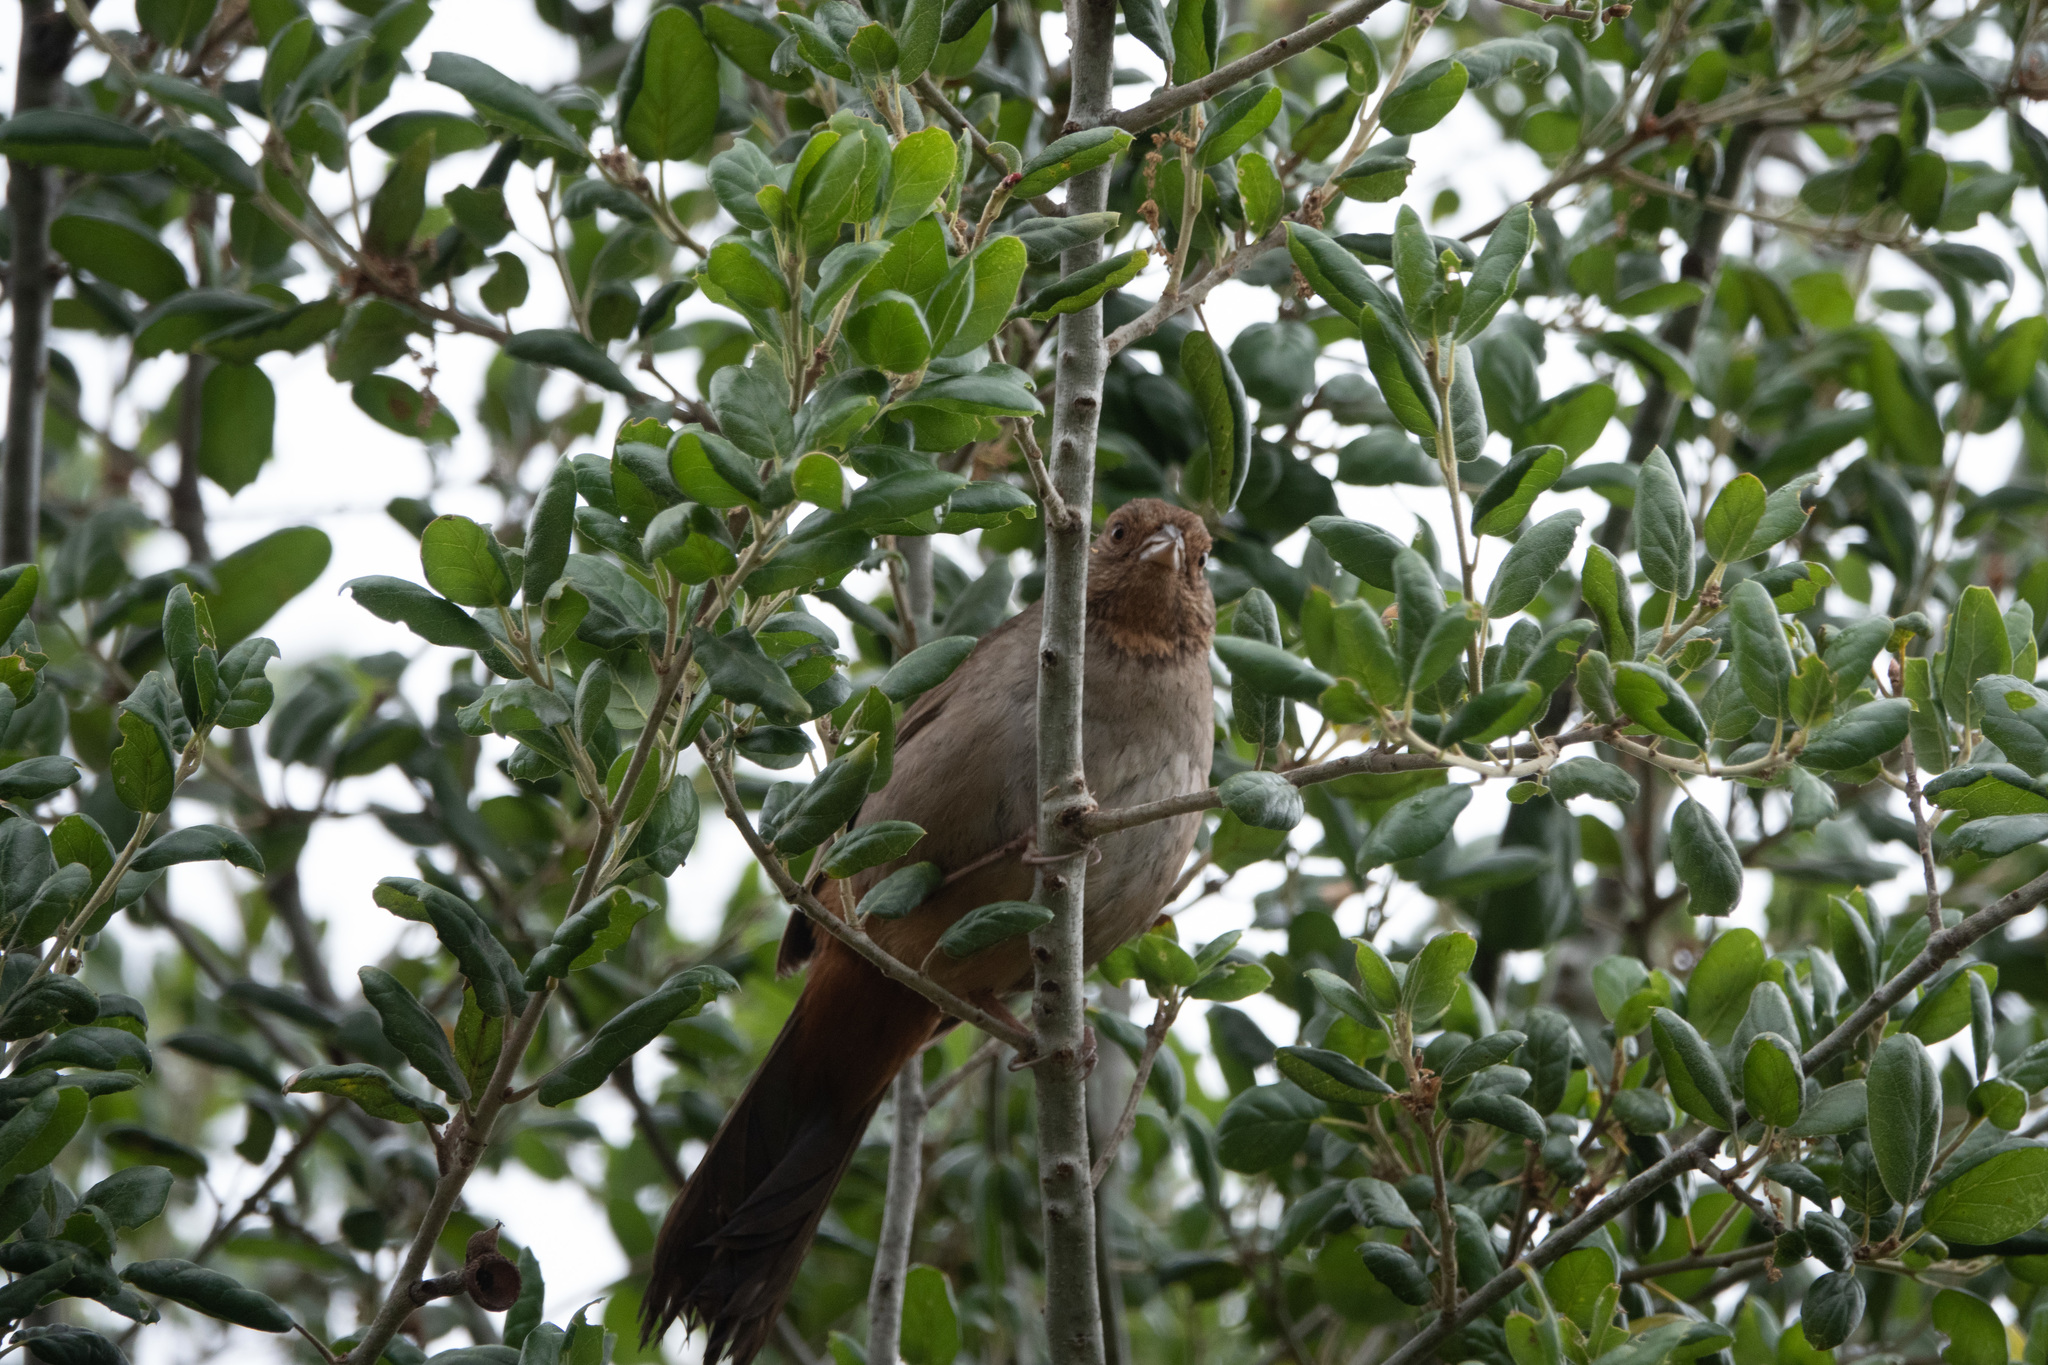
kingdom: Animalia
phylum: Chordata
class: Aves
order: Passeriformes
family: Passerellidae
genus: Melozone
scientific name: Melozone crissalis
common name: California towhee
